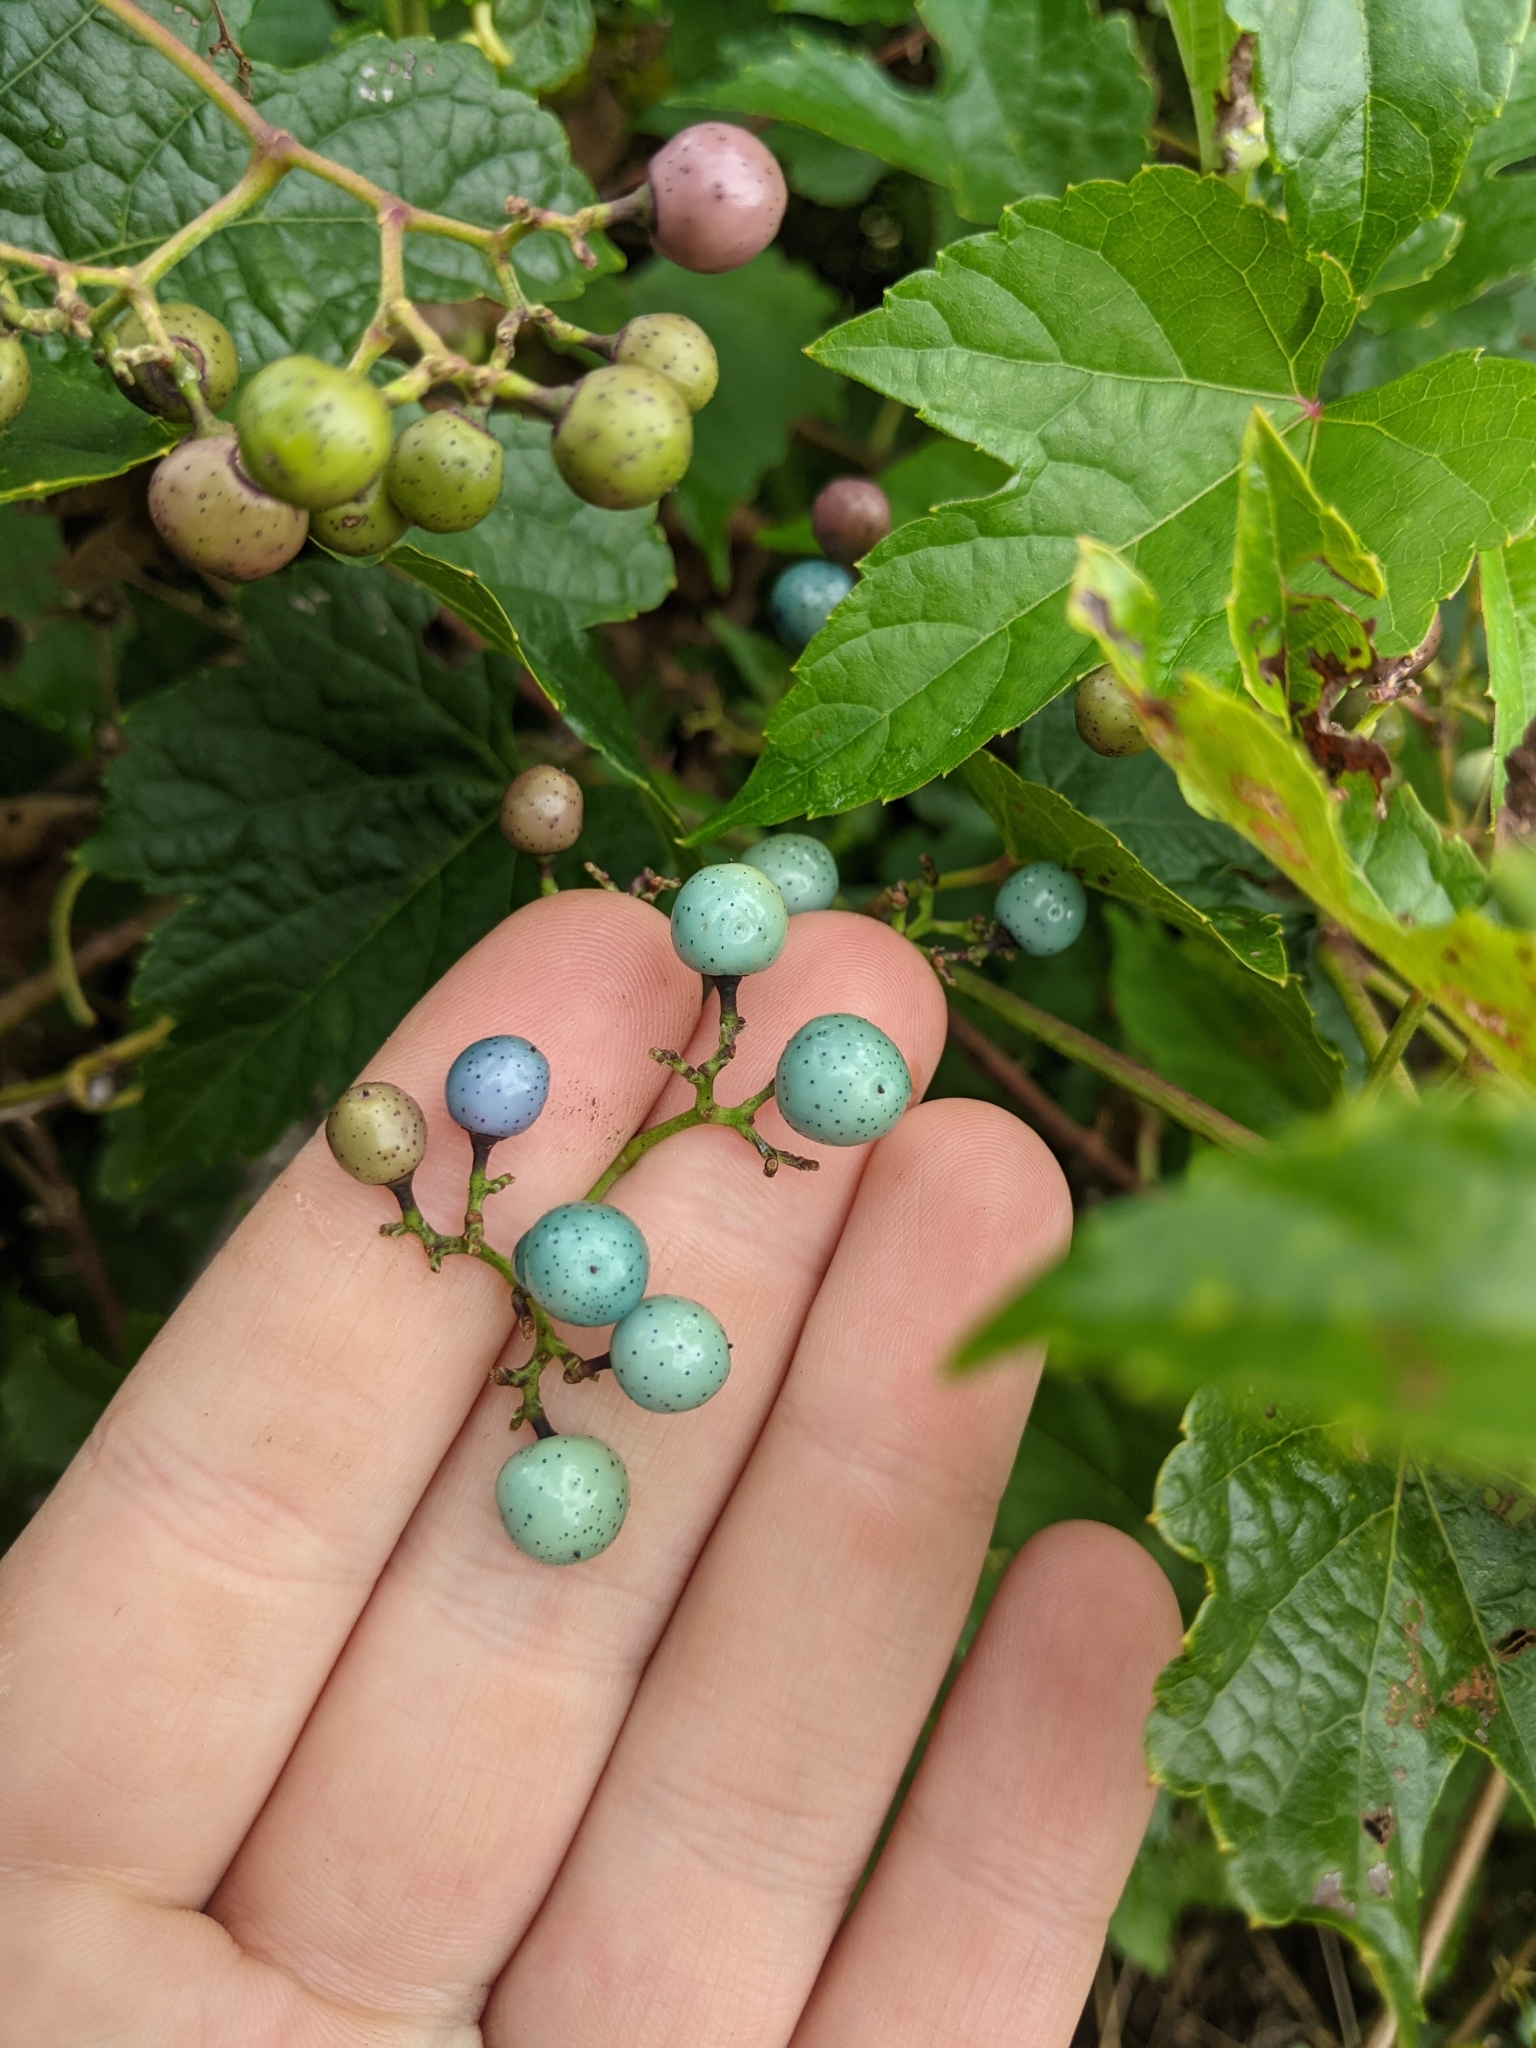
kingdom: Plantae
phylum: Tracheophyta
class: Magnoliopsida
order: Vitales
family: Vitaceae
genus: Ampelopsis
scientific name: Ampelopsis glandulosa
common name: Amur peppervine
